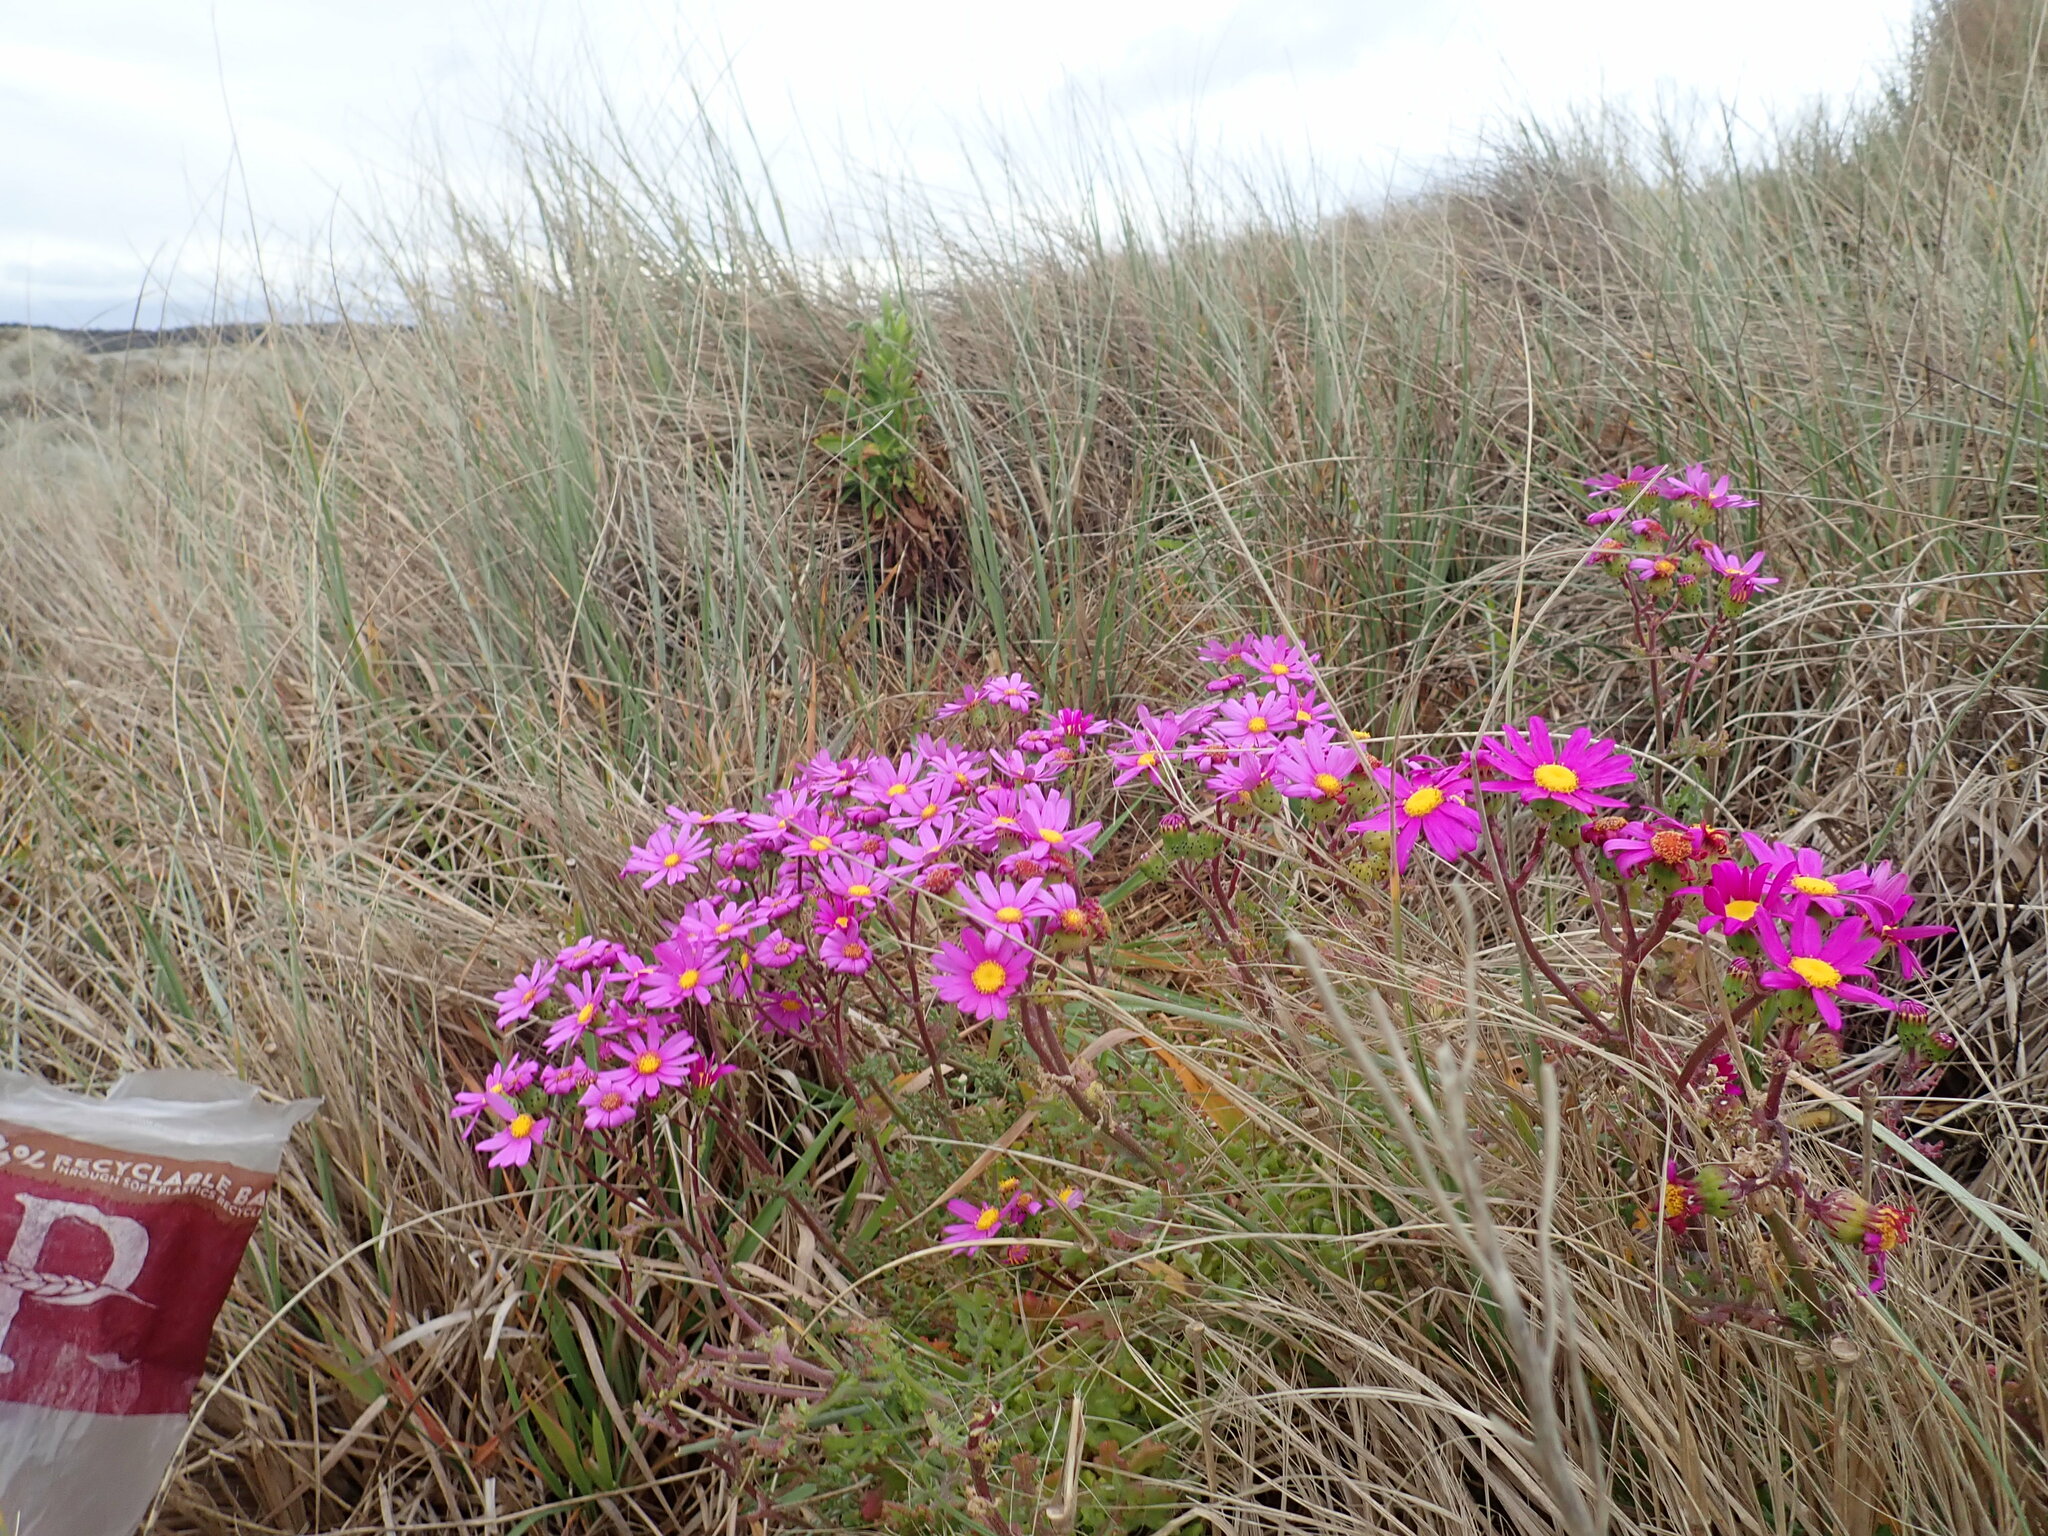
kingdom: Plantae
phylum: Tracheophyta
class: Magnoliopsida
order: Asterales
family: Asteraceae
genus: Senecio
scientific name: Senecio elegans
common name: Purple groundsel
